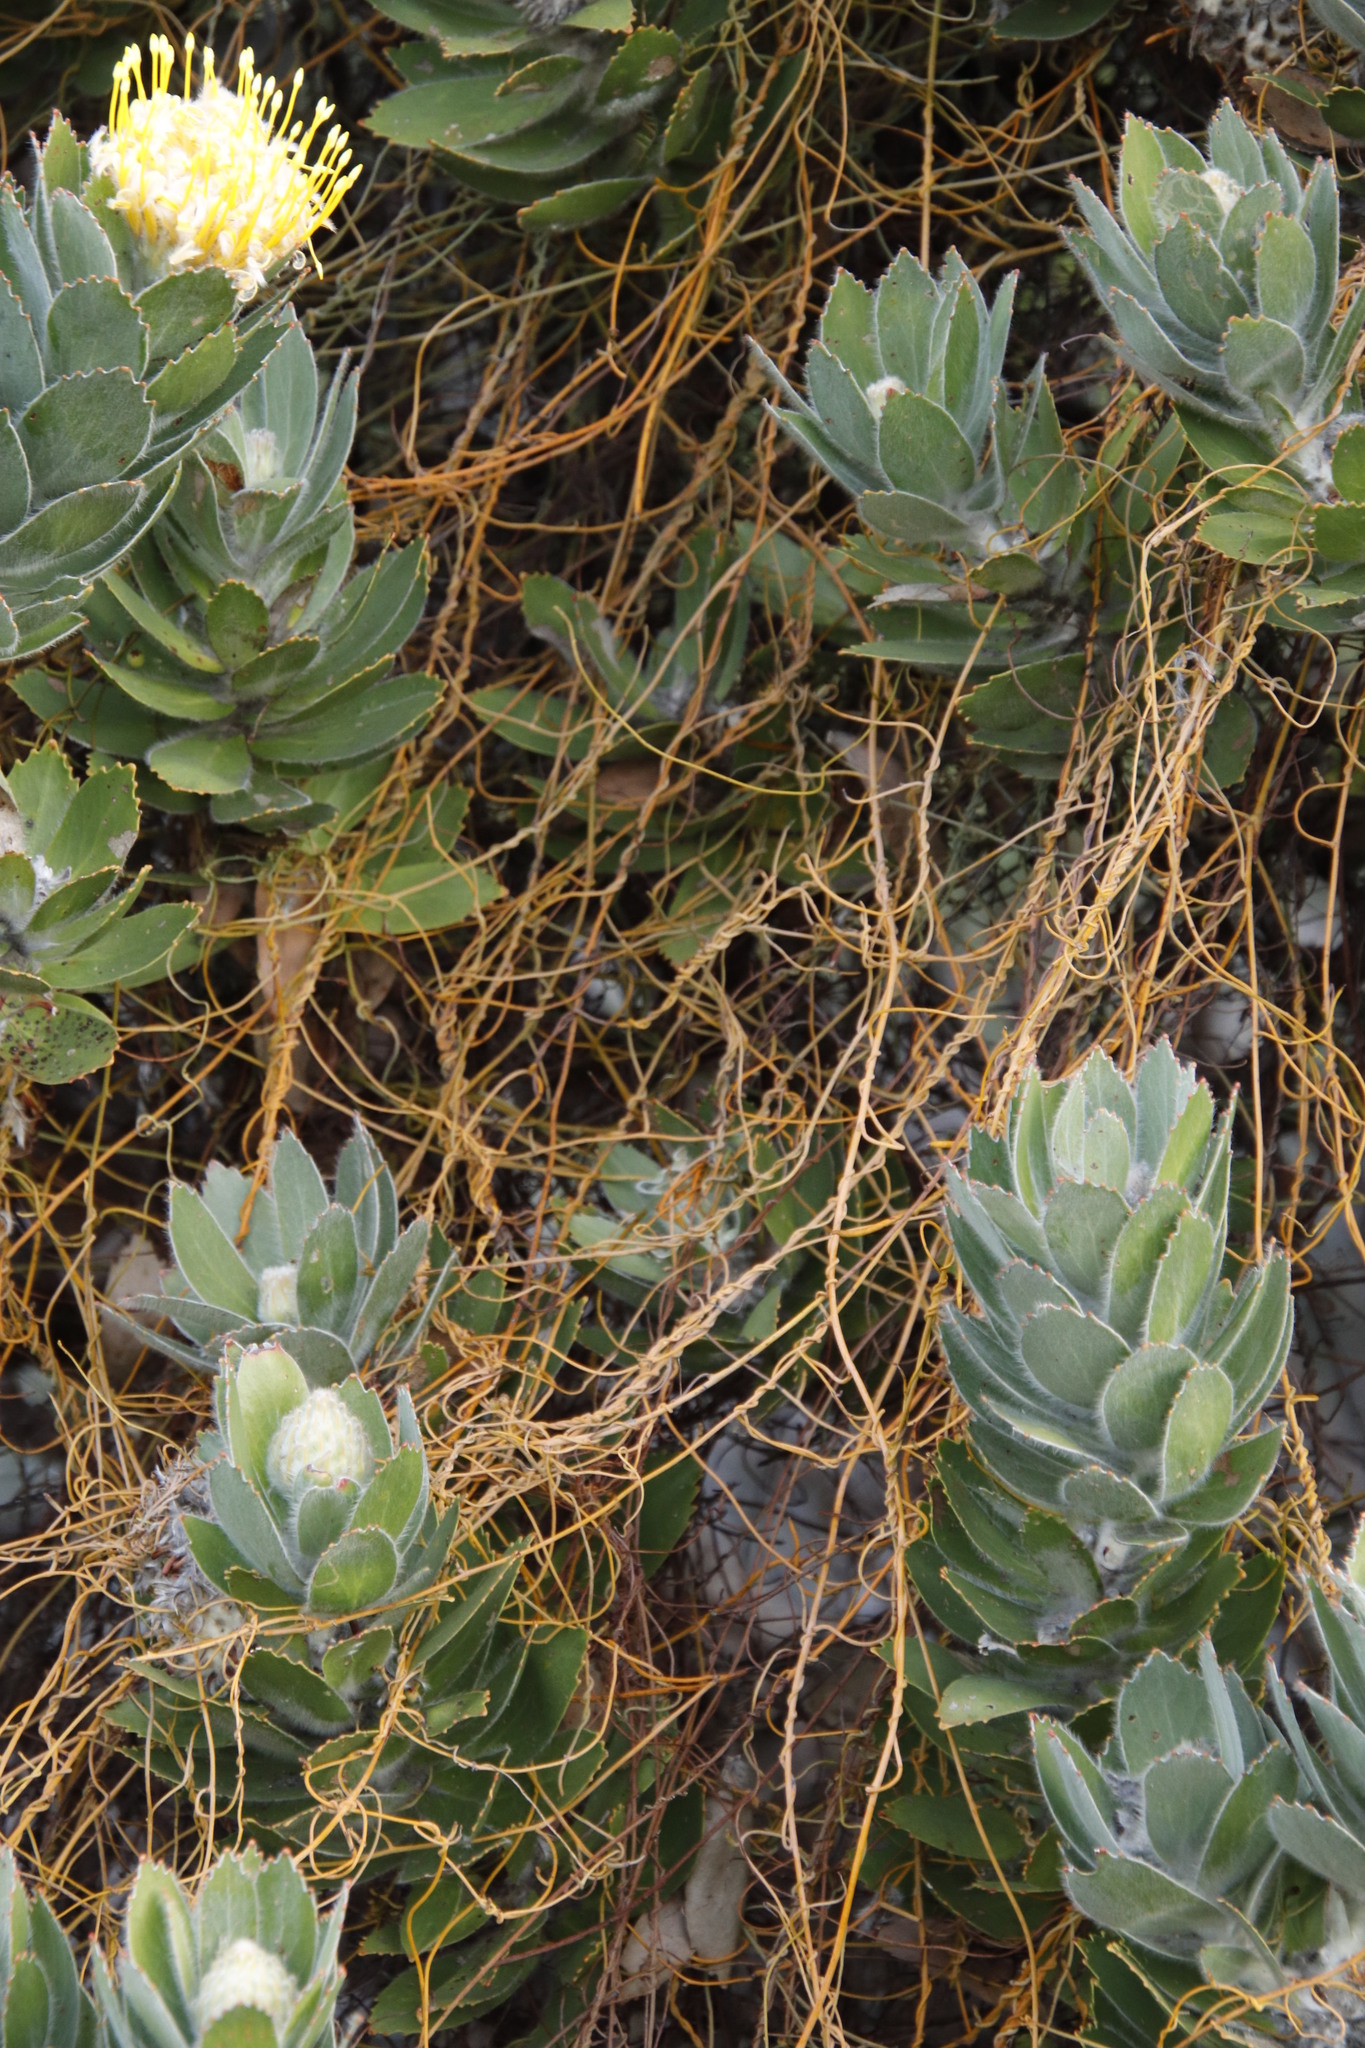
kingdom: Plantae
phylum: Tracheophyta
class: Magnoliopsida
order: Proteales
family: Proteaceae
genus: Leucospermum
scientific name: Leucospermum conocarpodendron
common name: Tree pincushion
